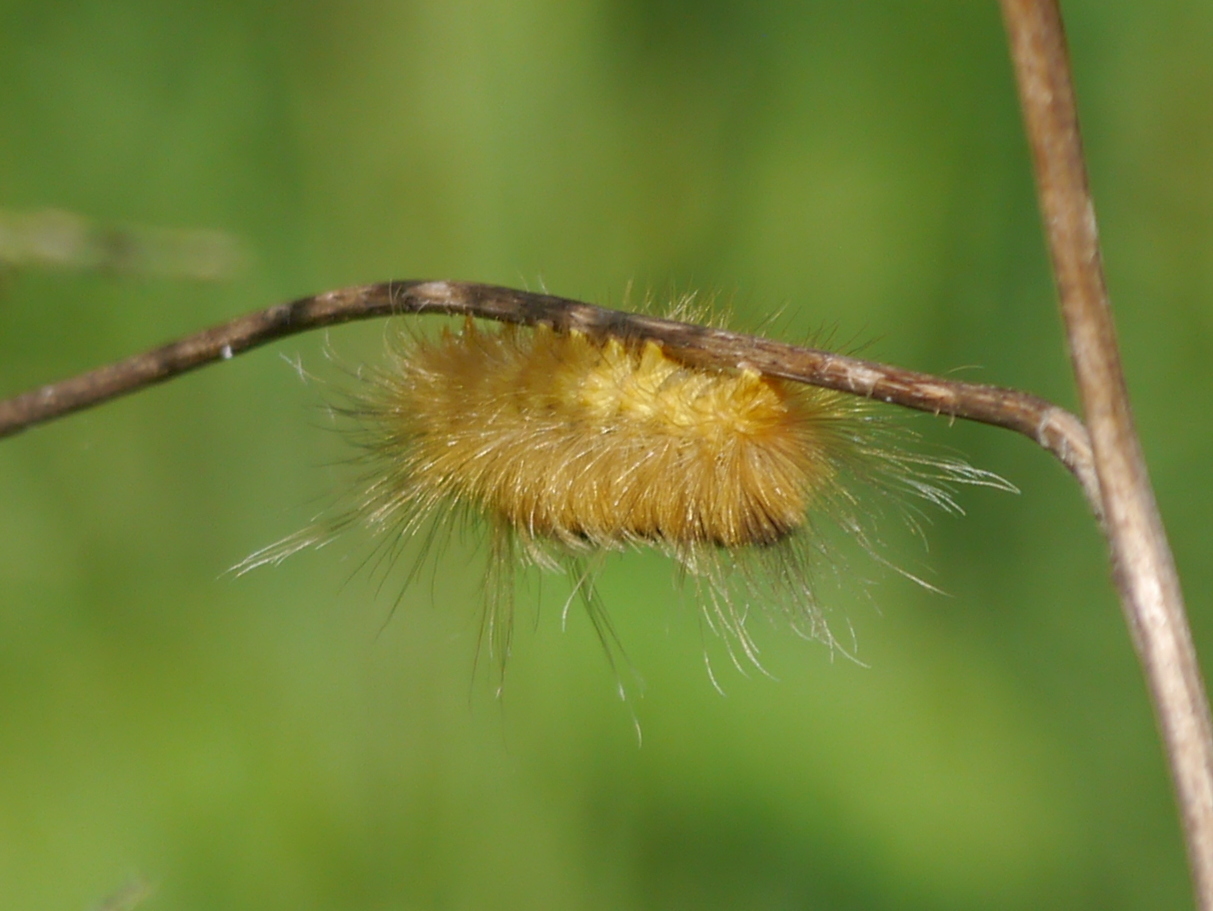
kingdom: Animalia
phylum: Arthropoda
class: Insecta
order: Lepidoptera
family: Erebidae
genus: Pygarctia
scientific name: Pygarctia roseicapitis
